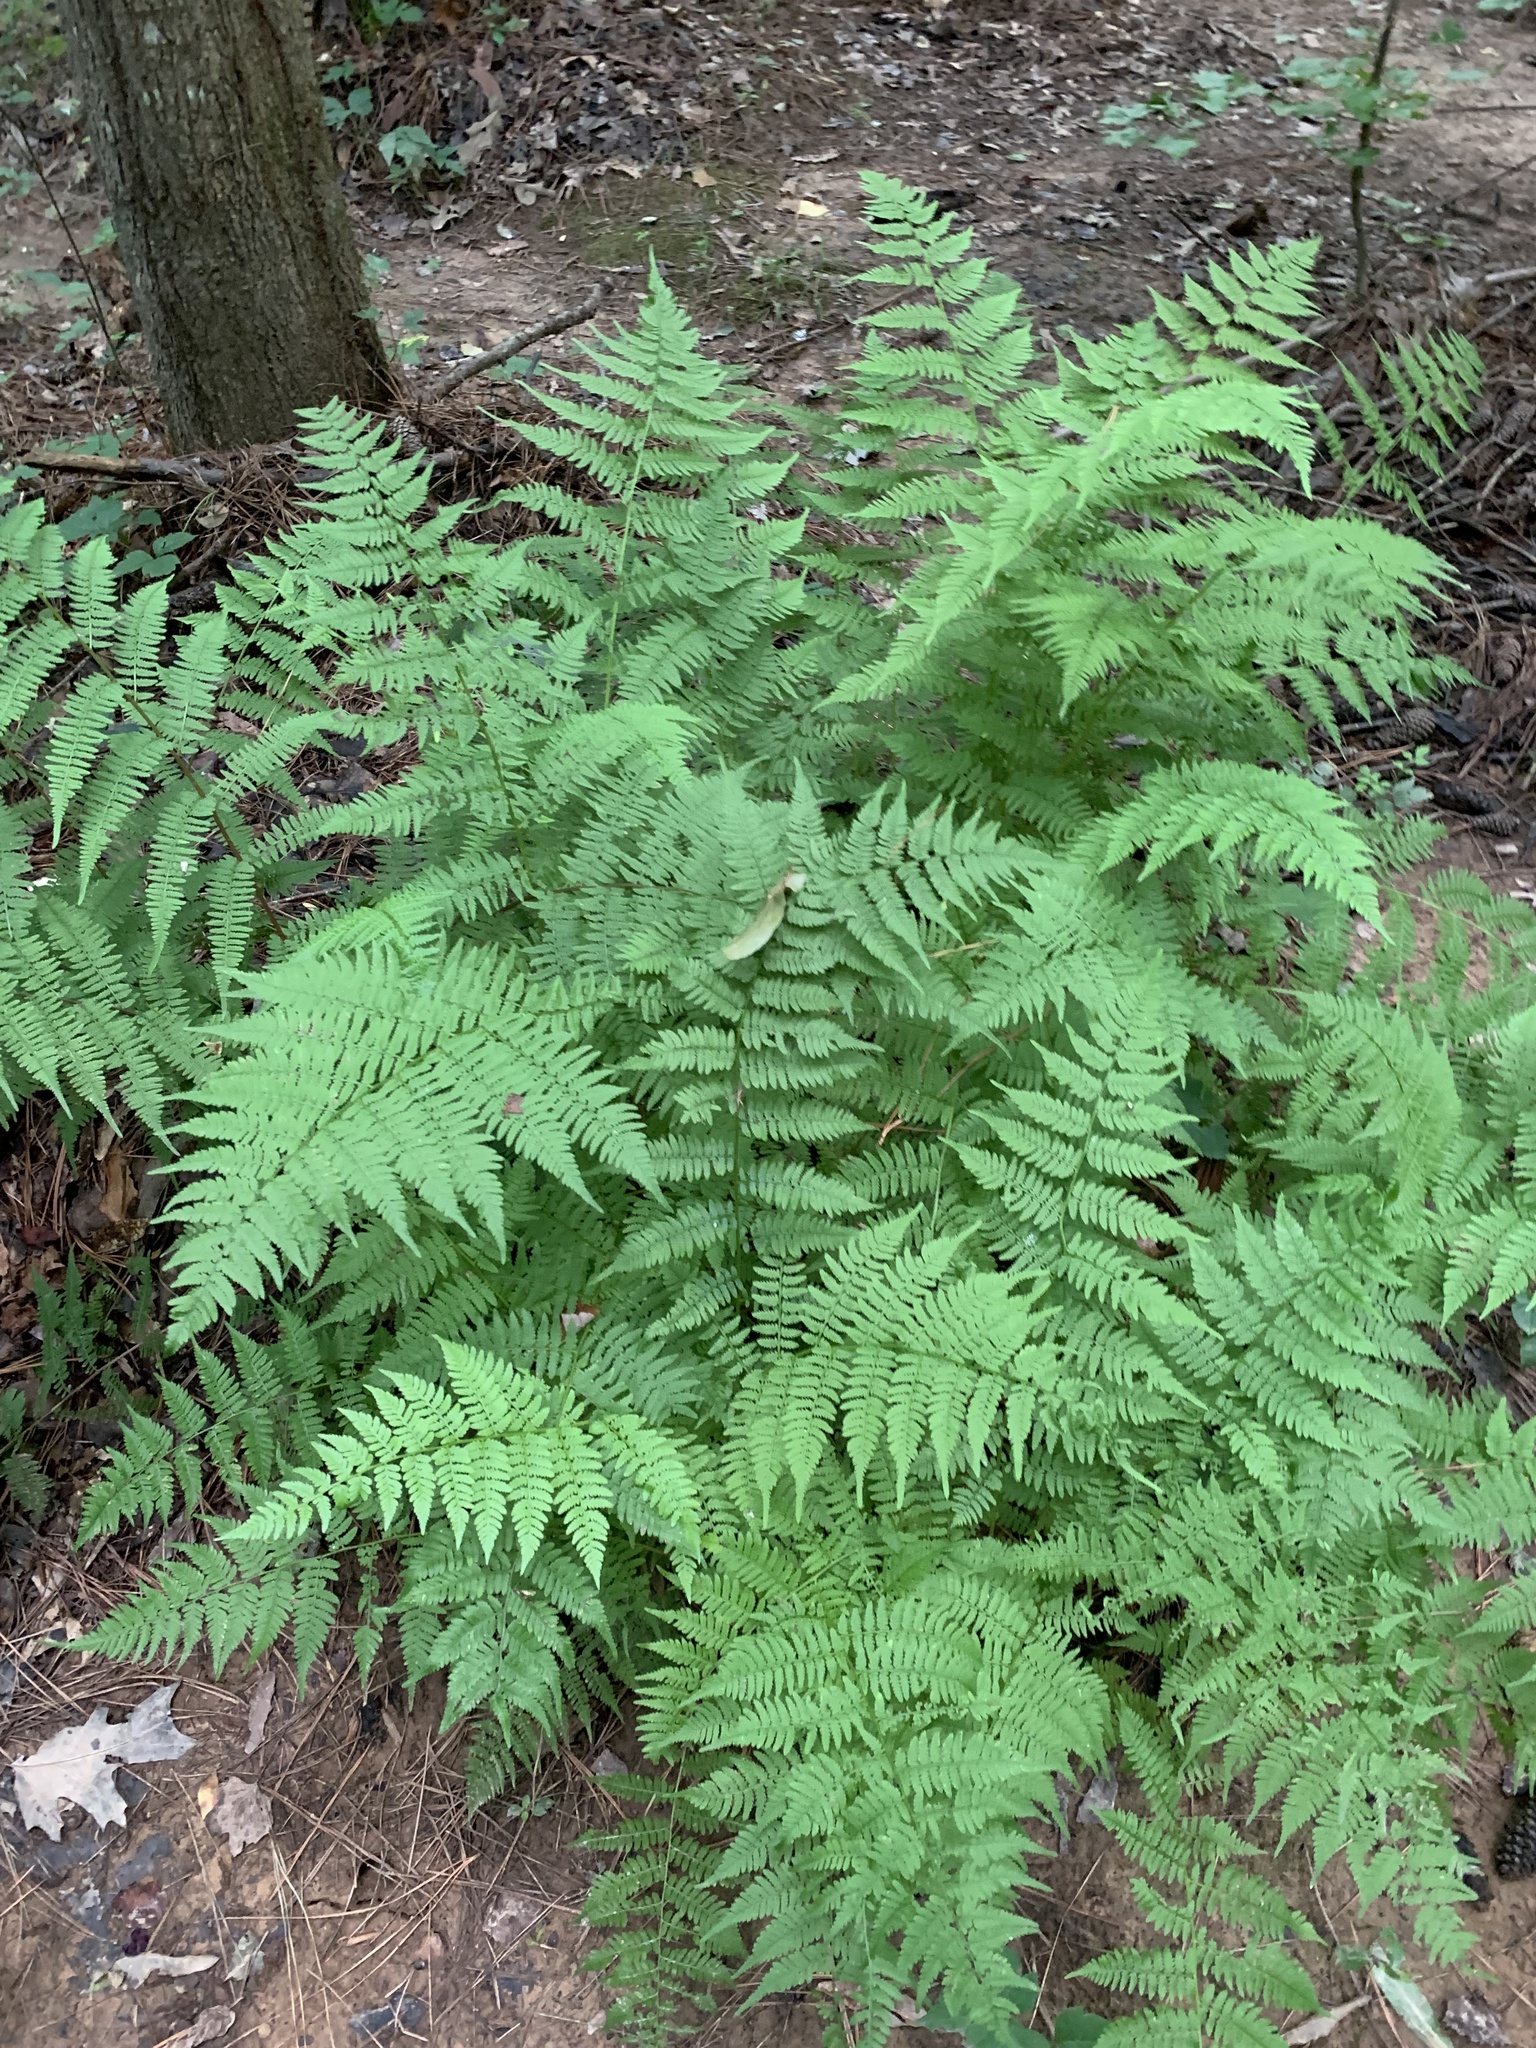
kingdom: Plantae
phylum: Tracheophyta
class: Polypodiopsida
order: Polypodiales
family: Athyriaceae
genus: Athyrium
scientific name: Athyrium asplenioides
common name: Southern lady fern
